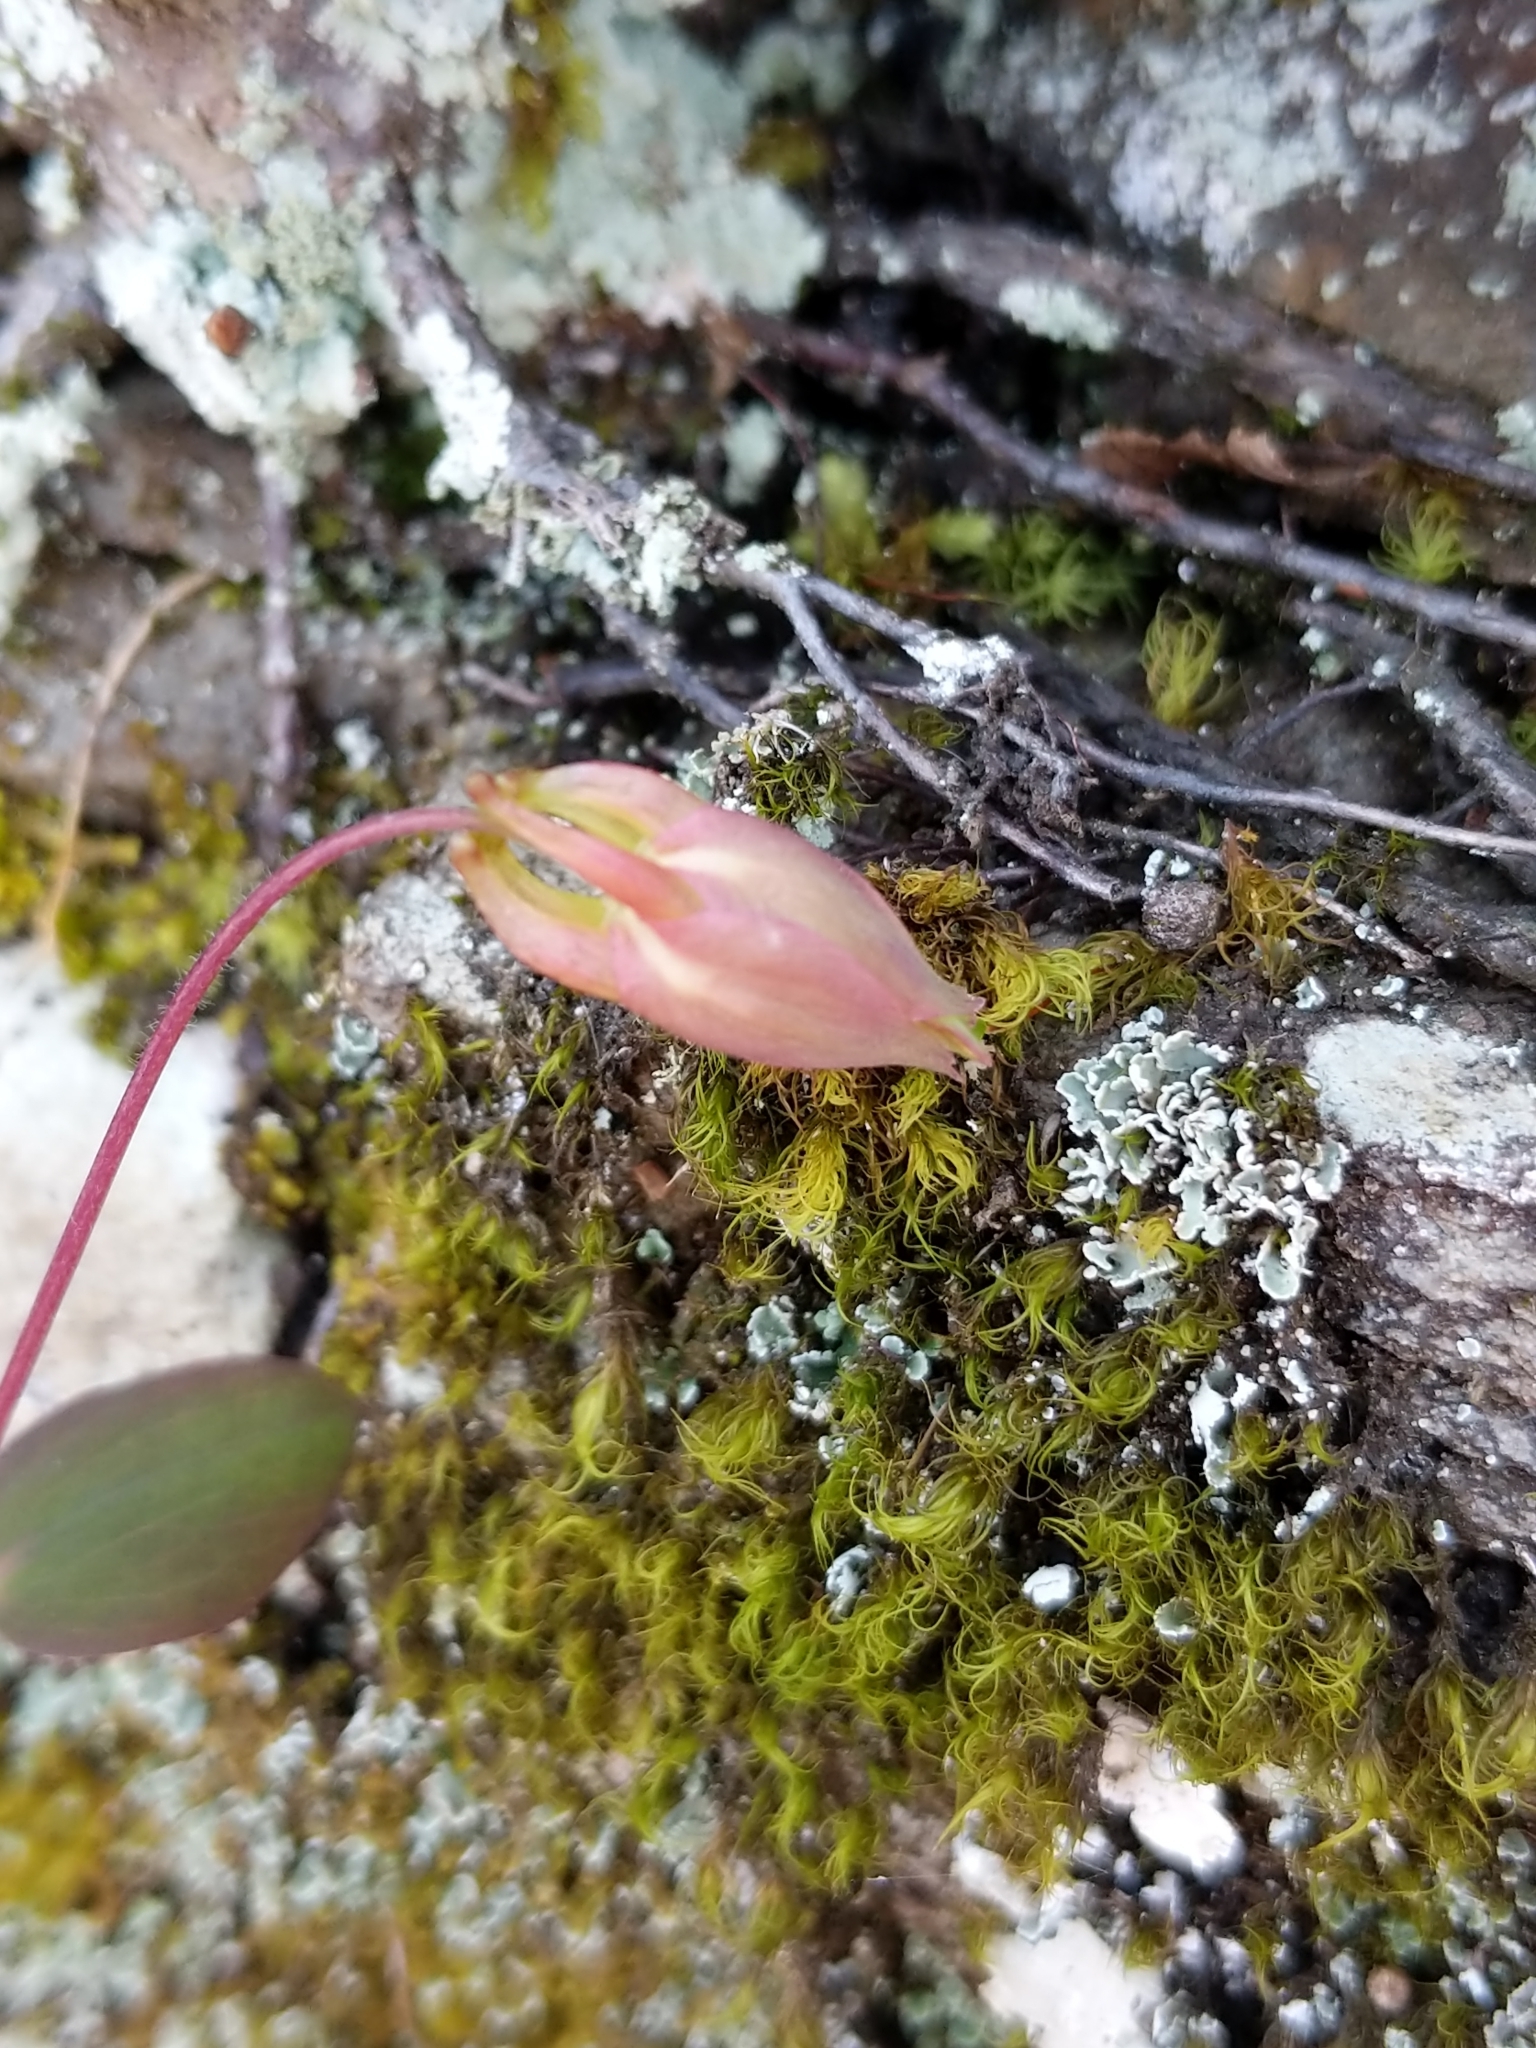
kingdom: Plantae
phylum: Tracheophyta
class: Magnoliopsida
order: Ranunculales
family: Ranunculaceae
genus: Aquilegia
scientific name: Aquilegia canadensis
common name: American columbine
